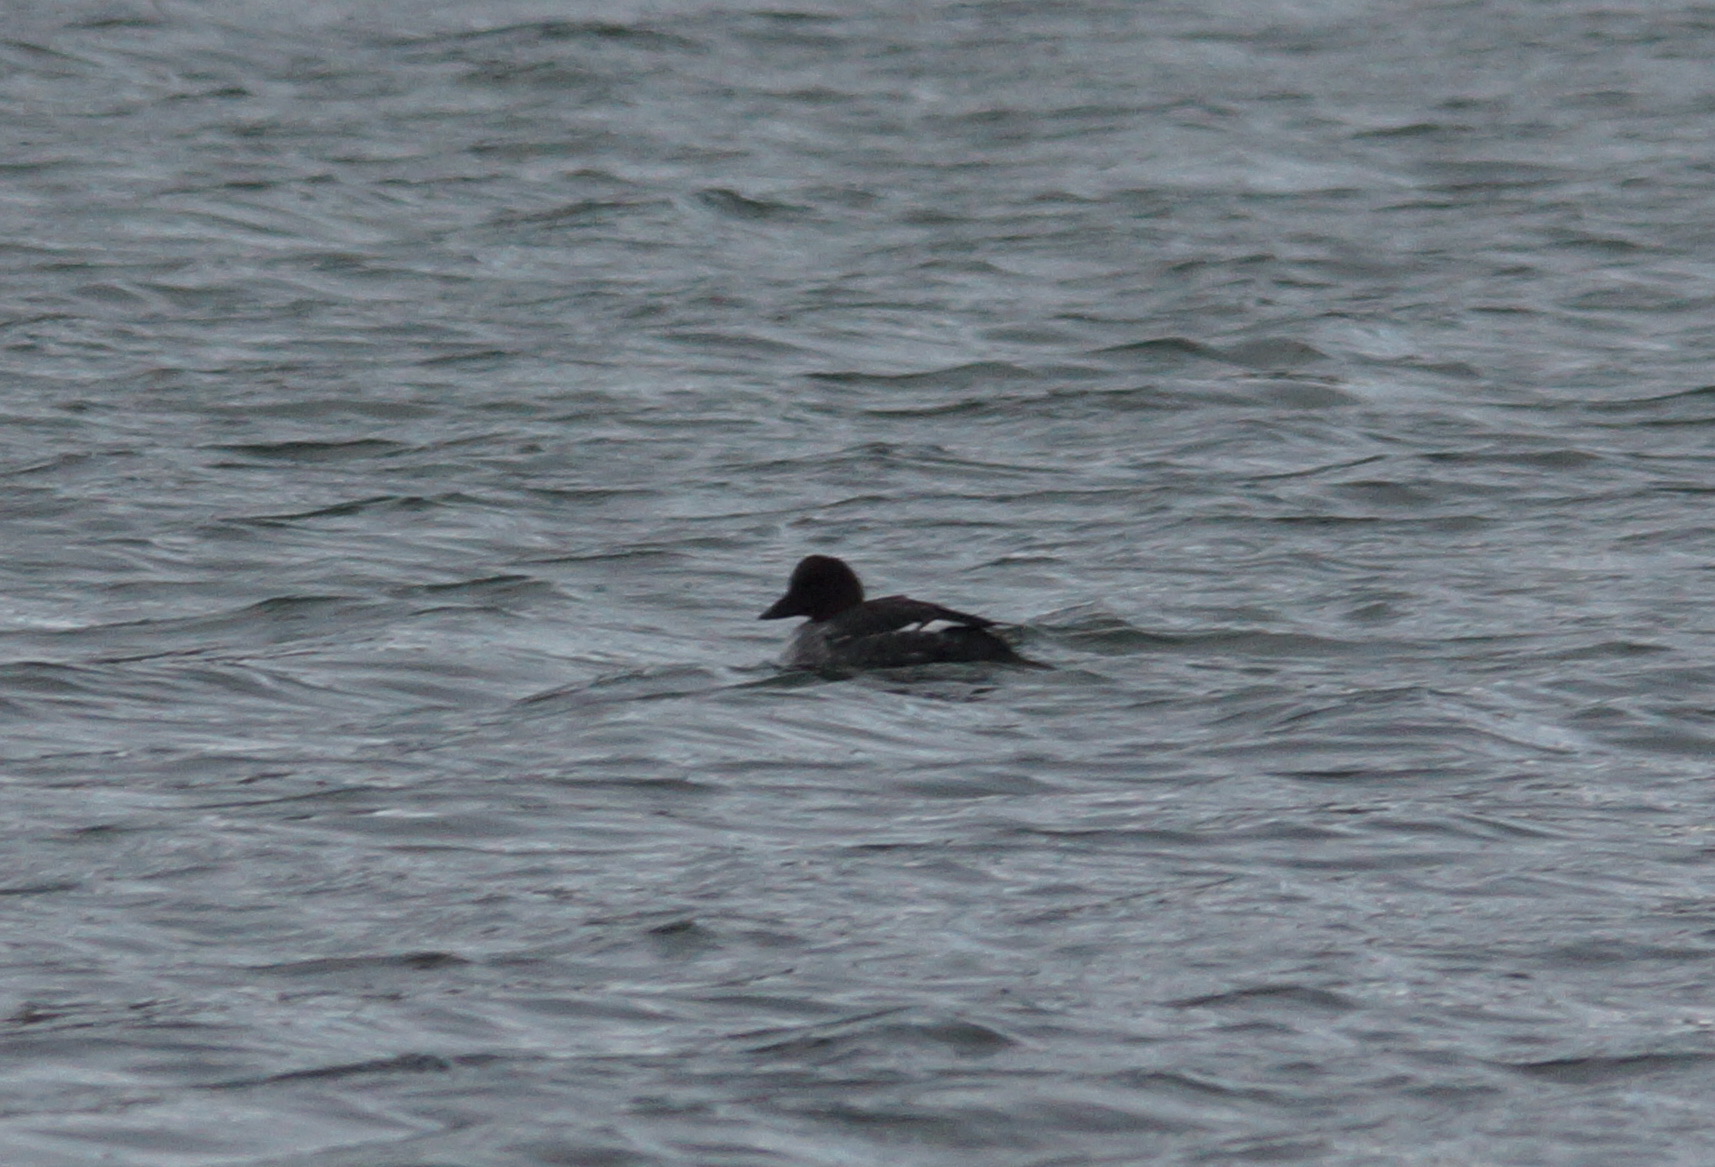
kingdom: Animalia
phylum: Chordata
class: Aves
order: Anseriformes
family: Anatidae
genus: Bucephala
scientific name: Bucephala clangula
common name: Common goldeneye
